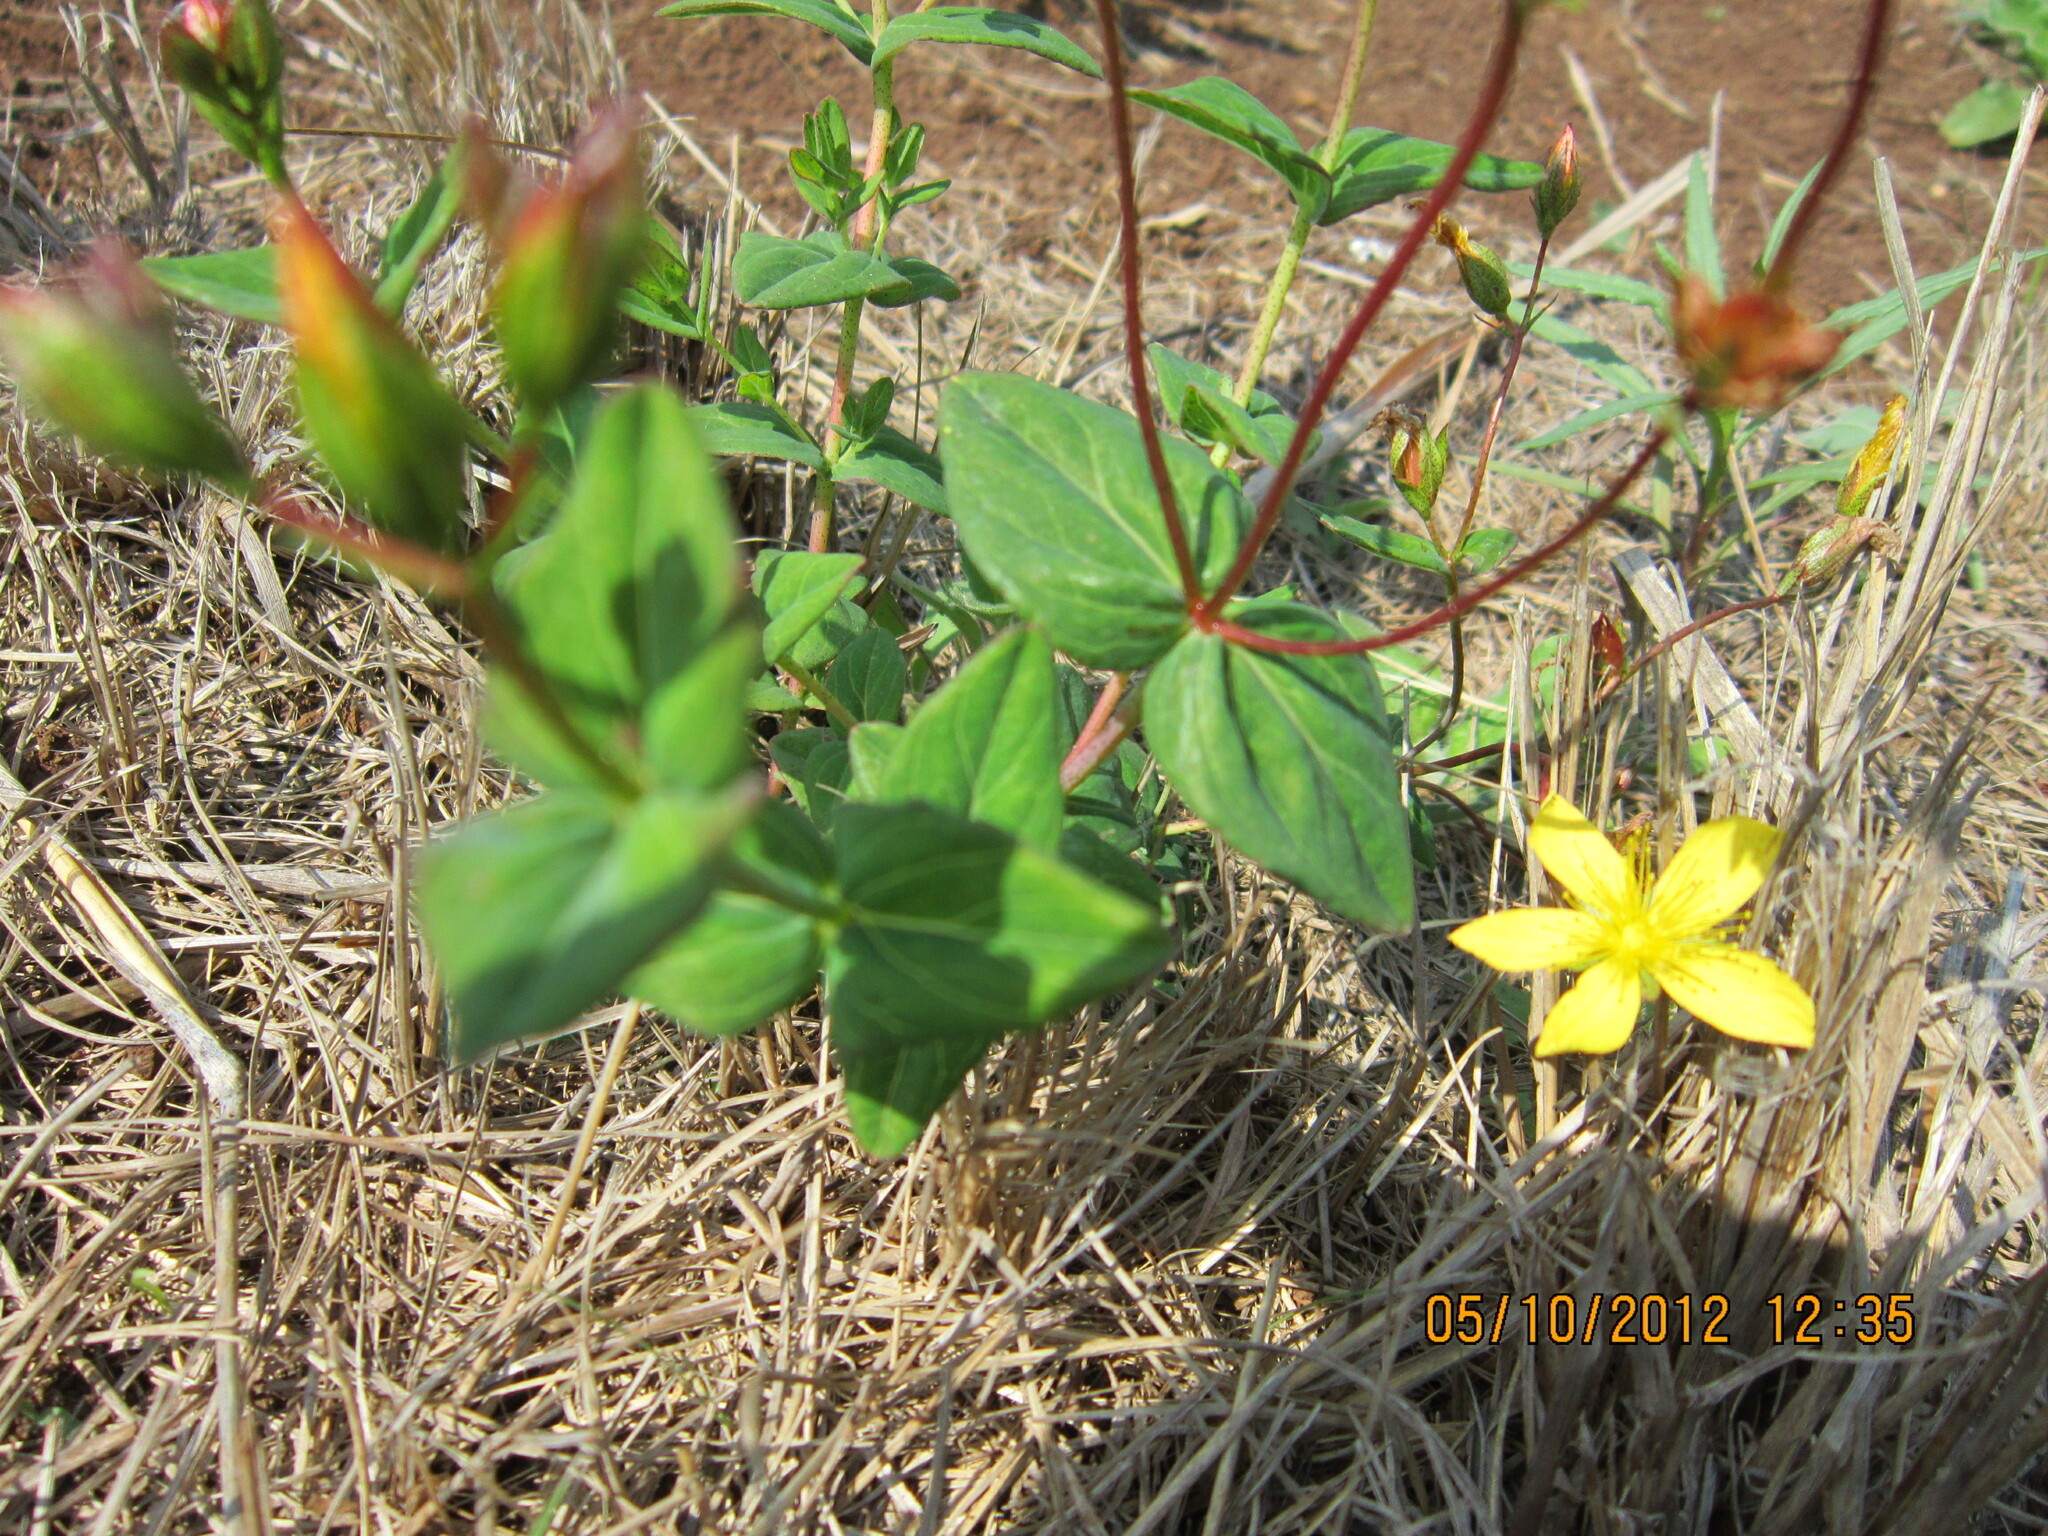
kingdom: Plantae
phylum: Tracheophyta
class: Magnoliopsida
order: Malpighiales
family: Hypericaceae
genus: Hypericum
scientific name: Hypericum aethiopicum
